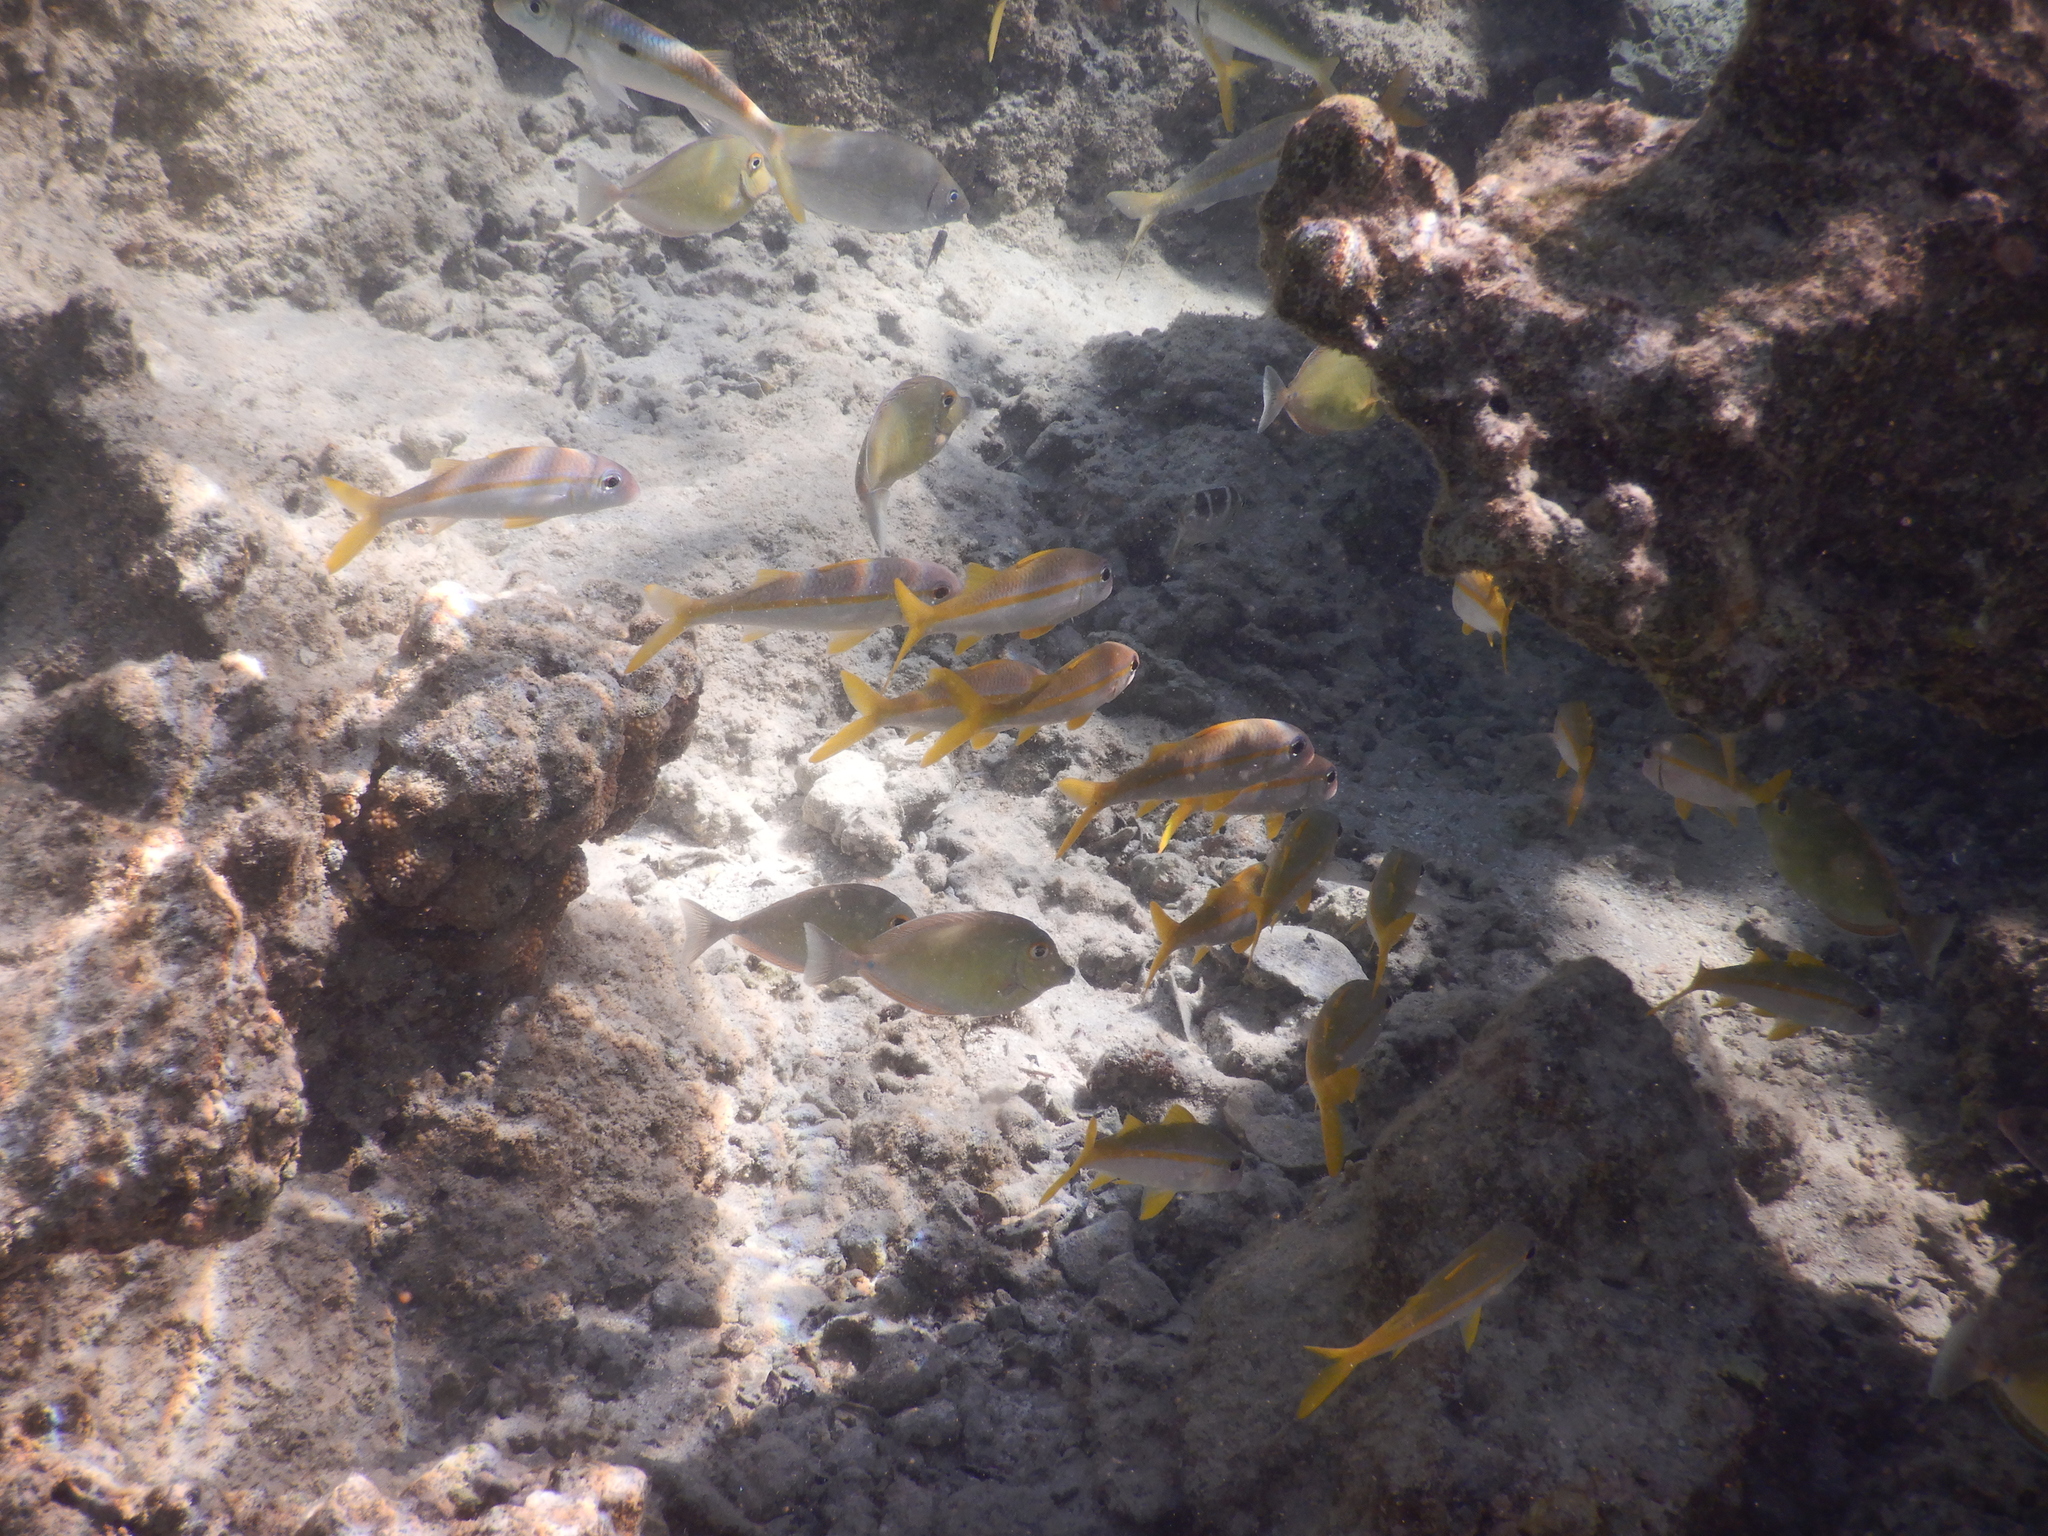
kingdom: Animalia
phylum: Chordata
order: Perciformes
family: Mullidae
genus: Mulloidichthys
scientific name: Mulloidichthys vanicolensis
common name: Yellowfin goatfish
